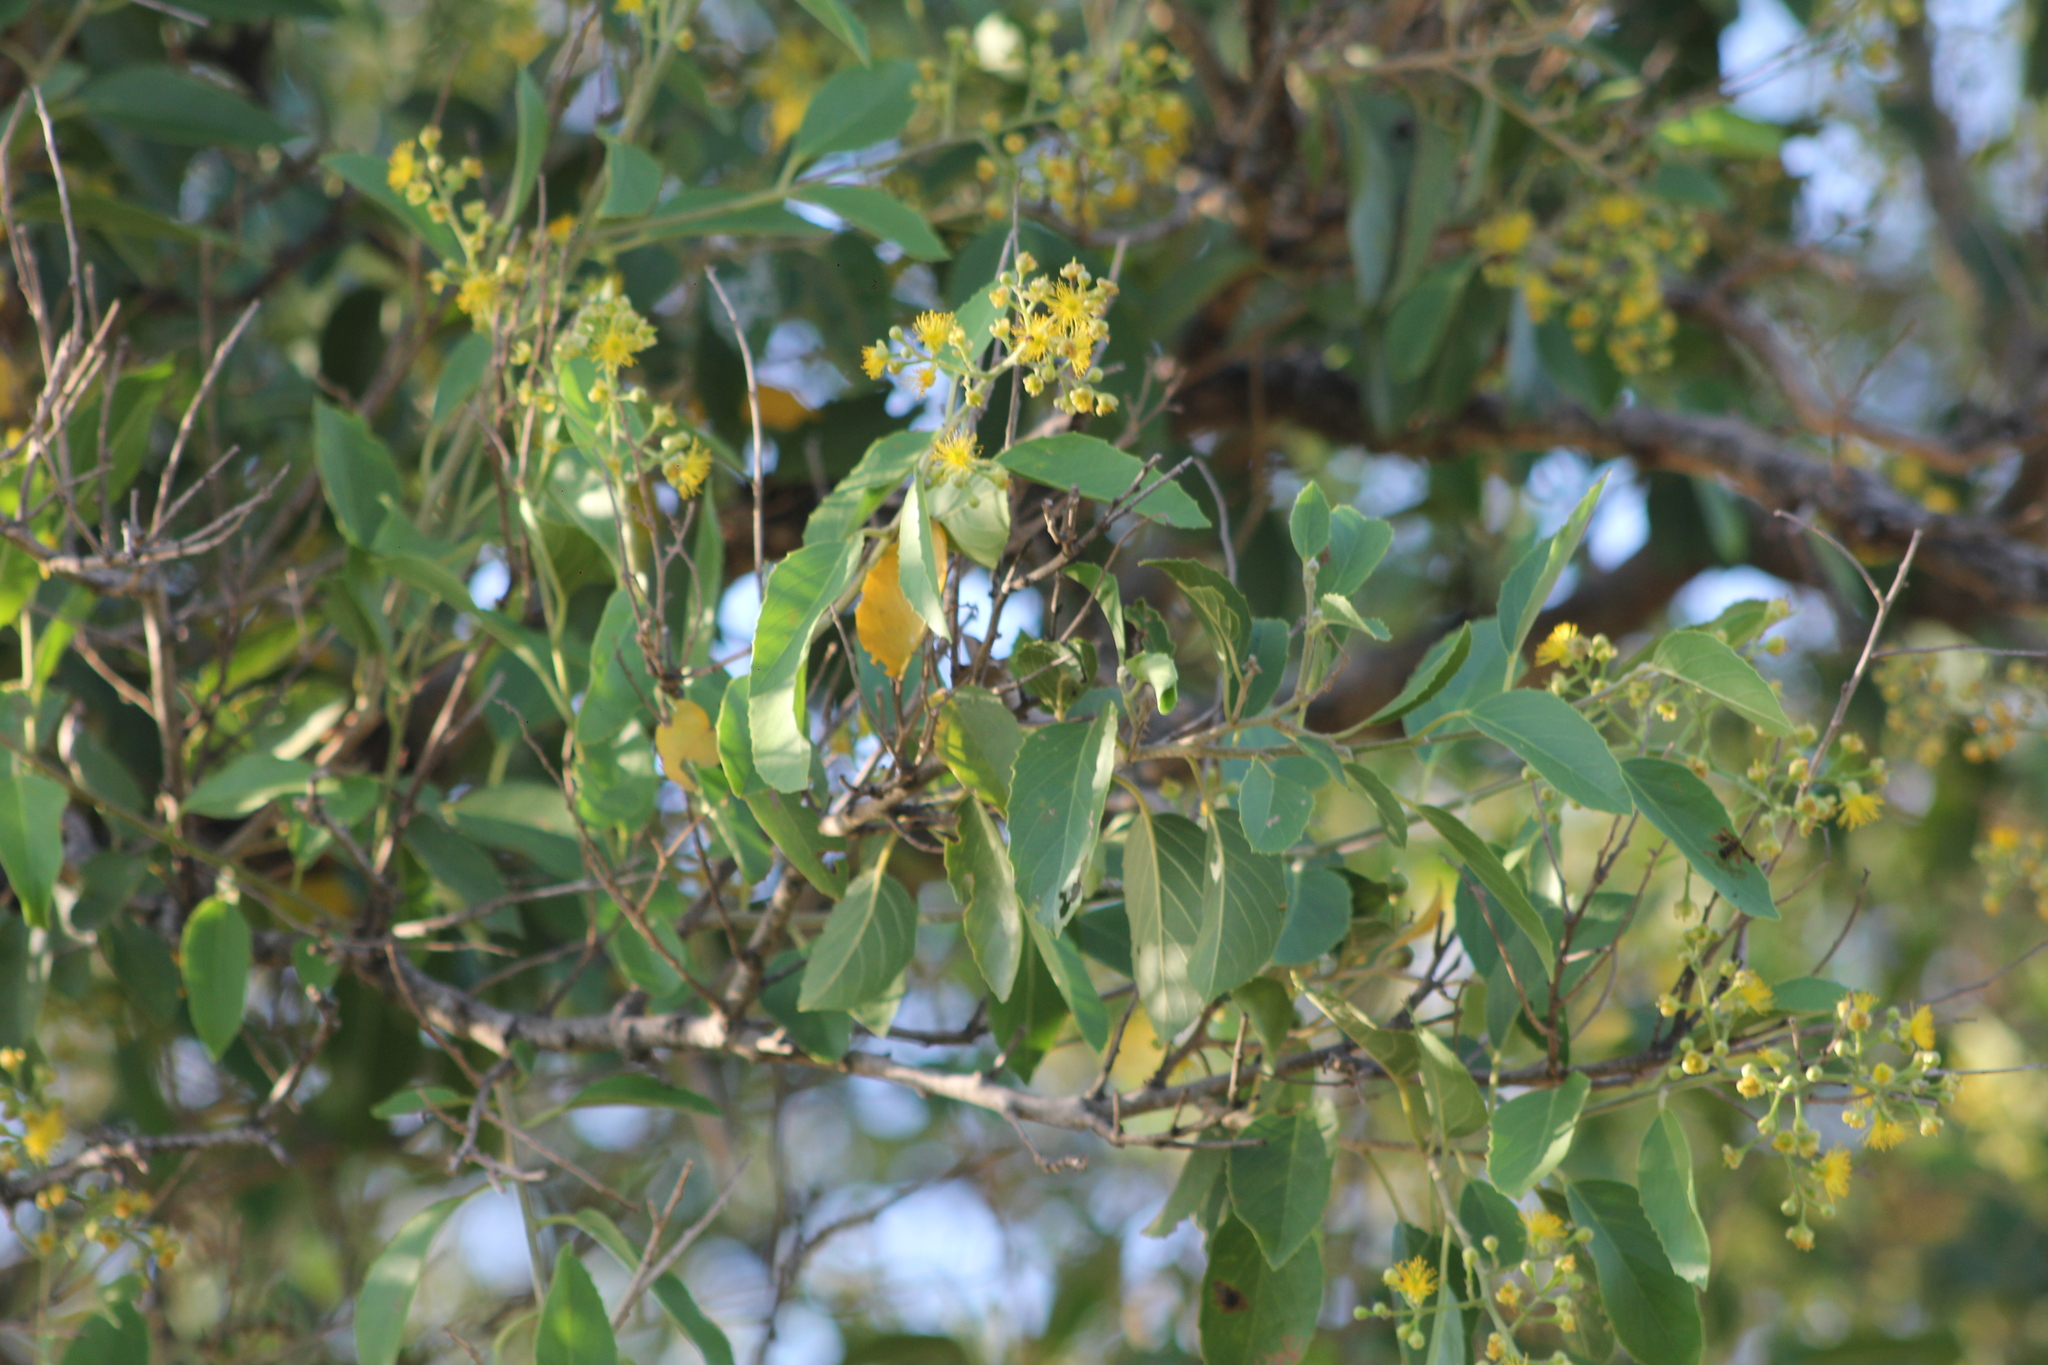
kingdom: Plantae
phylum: Tracheophyta
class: Magnoliopsida
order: Malpighiales
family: Salicaceae
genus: Banara
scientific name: Banara arguta
